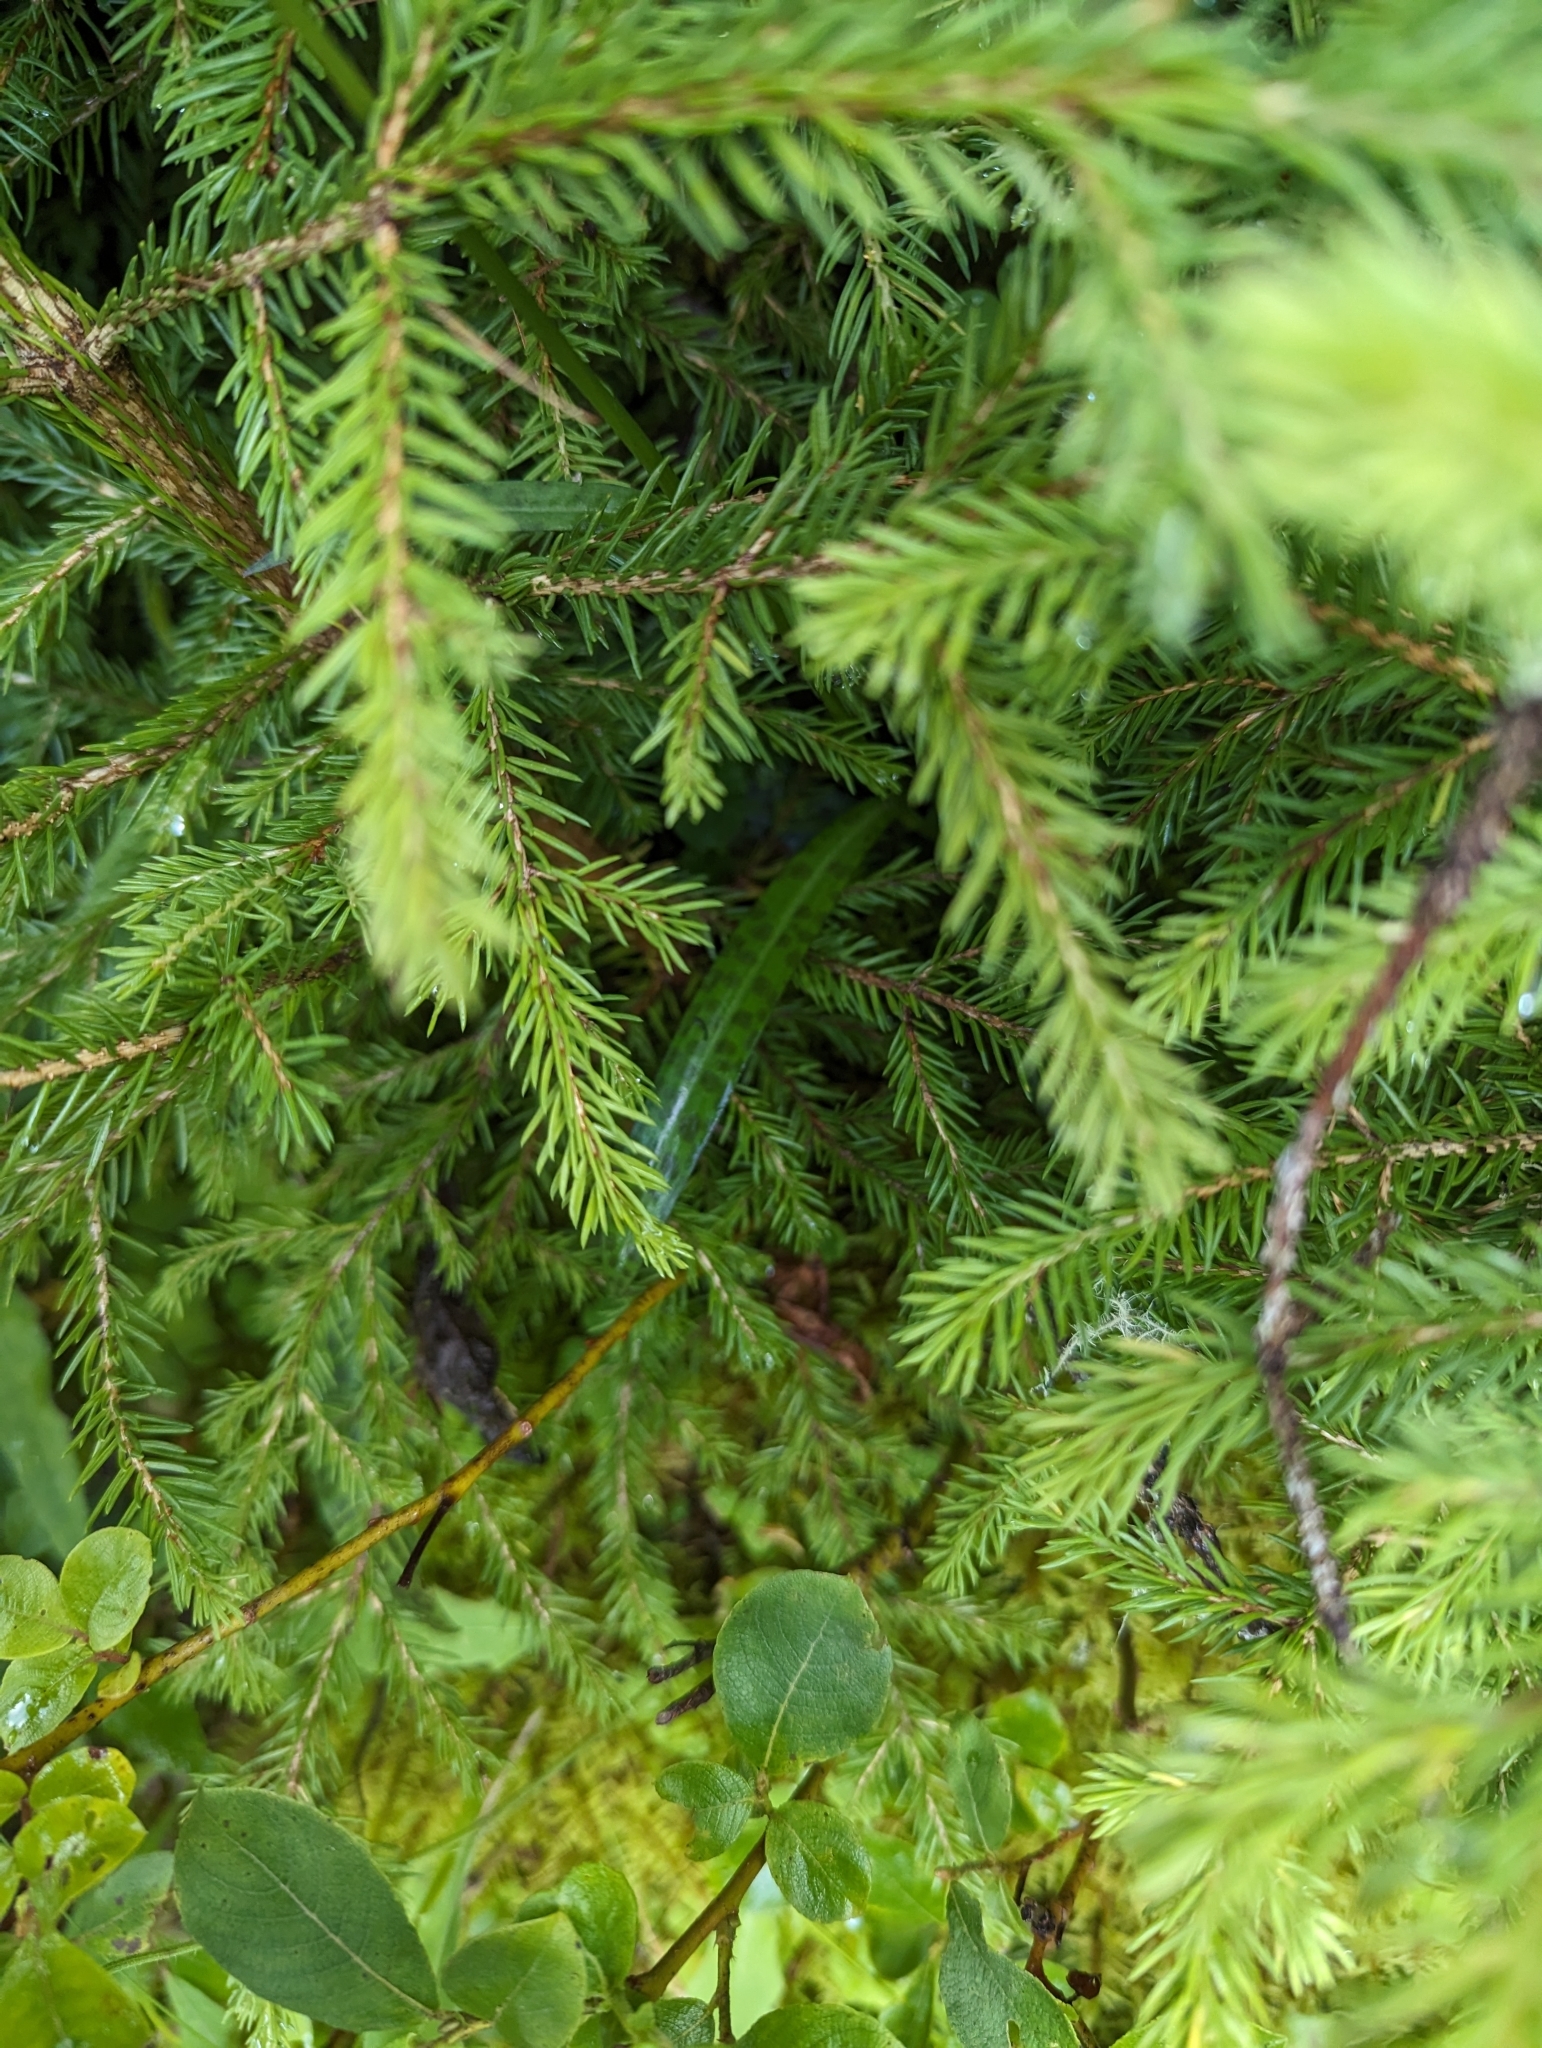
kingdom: Plantae
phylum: Tracheophyta
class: Liliopsida
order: Asparagales
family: Orchidaceae
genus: Dactylorhiza
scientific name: Dactylorhiza maculata
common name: Heath spotted-orchid
